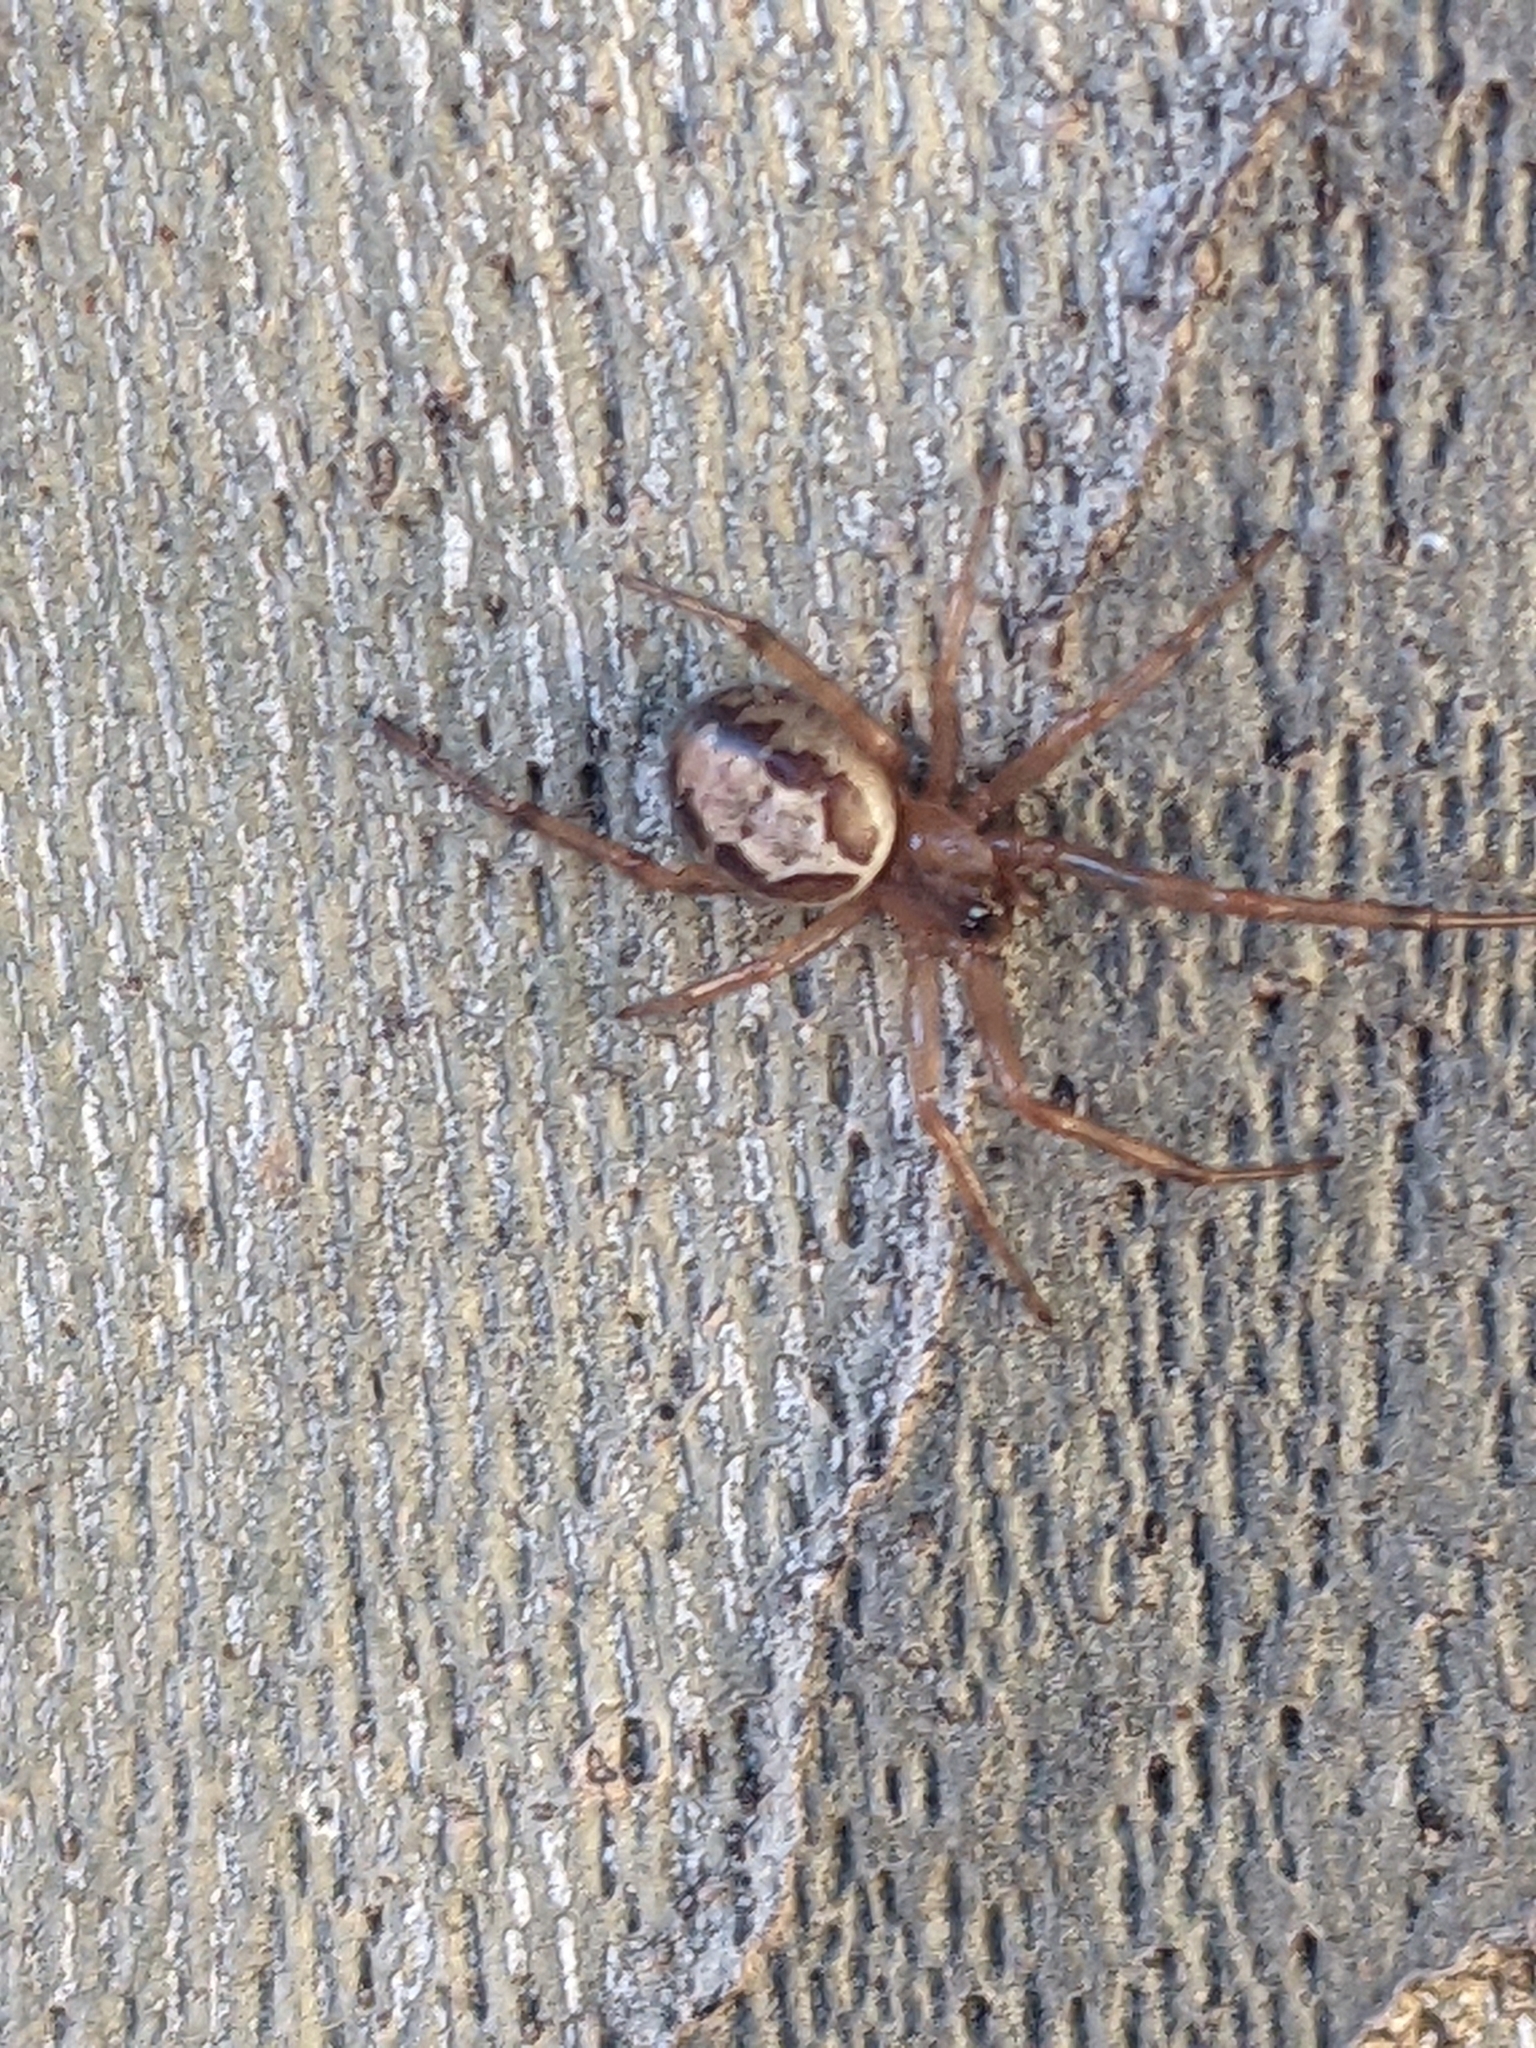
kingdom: Animalia
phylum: Arthropoda
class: Arachnida
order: Araneae
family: Theridiidae
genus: Steatoda
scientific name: Steatoda nobilis
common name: Cobweb weaver
